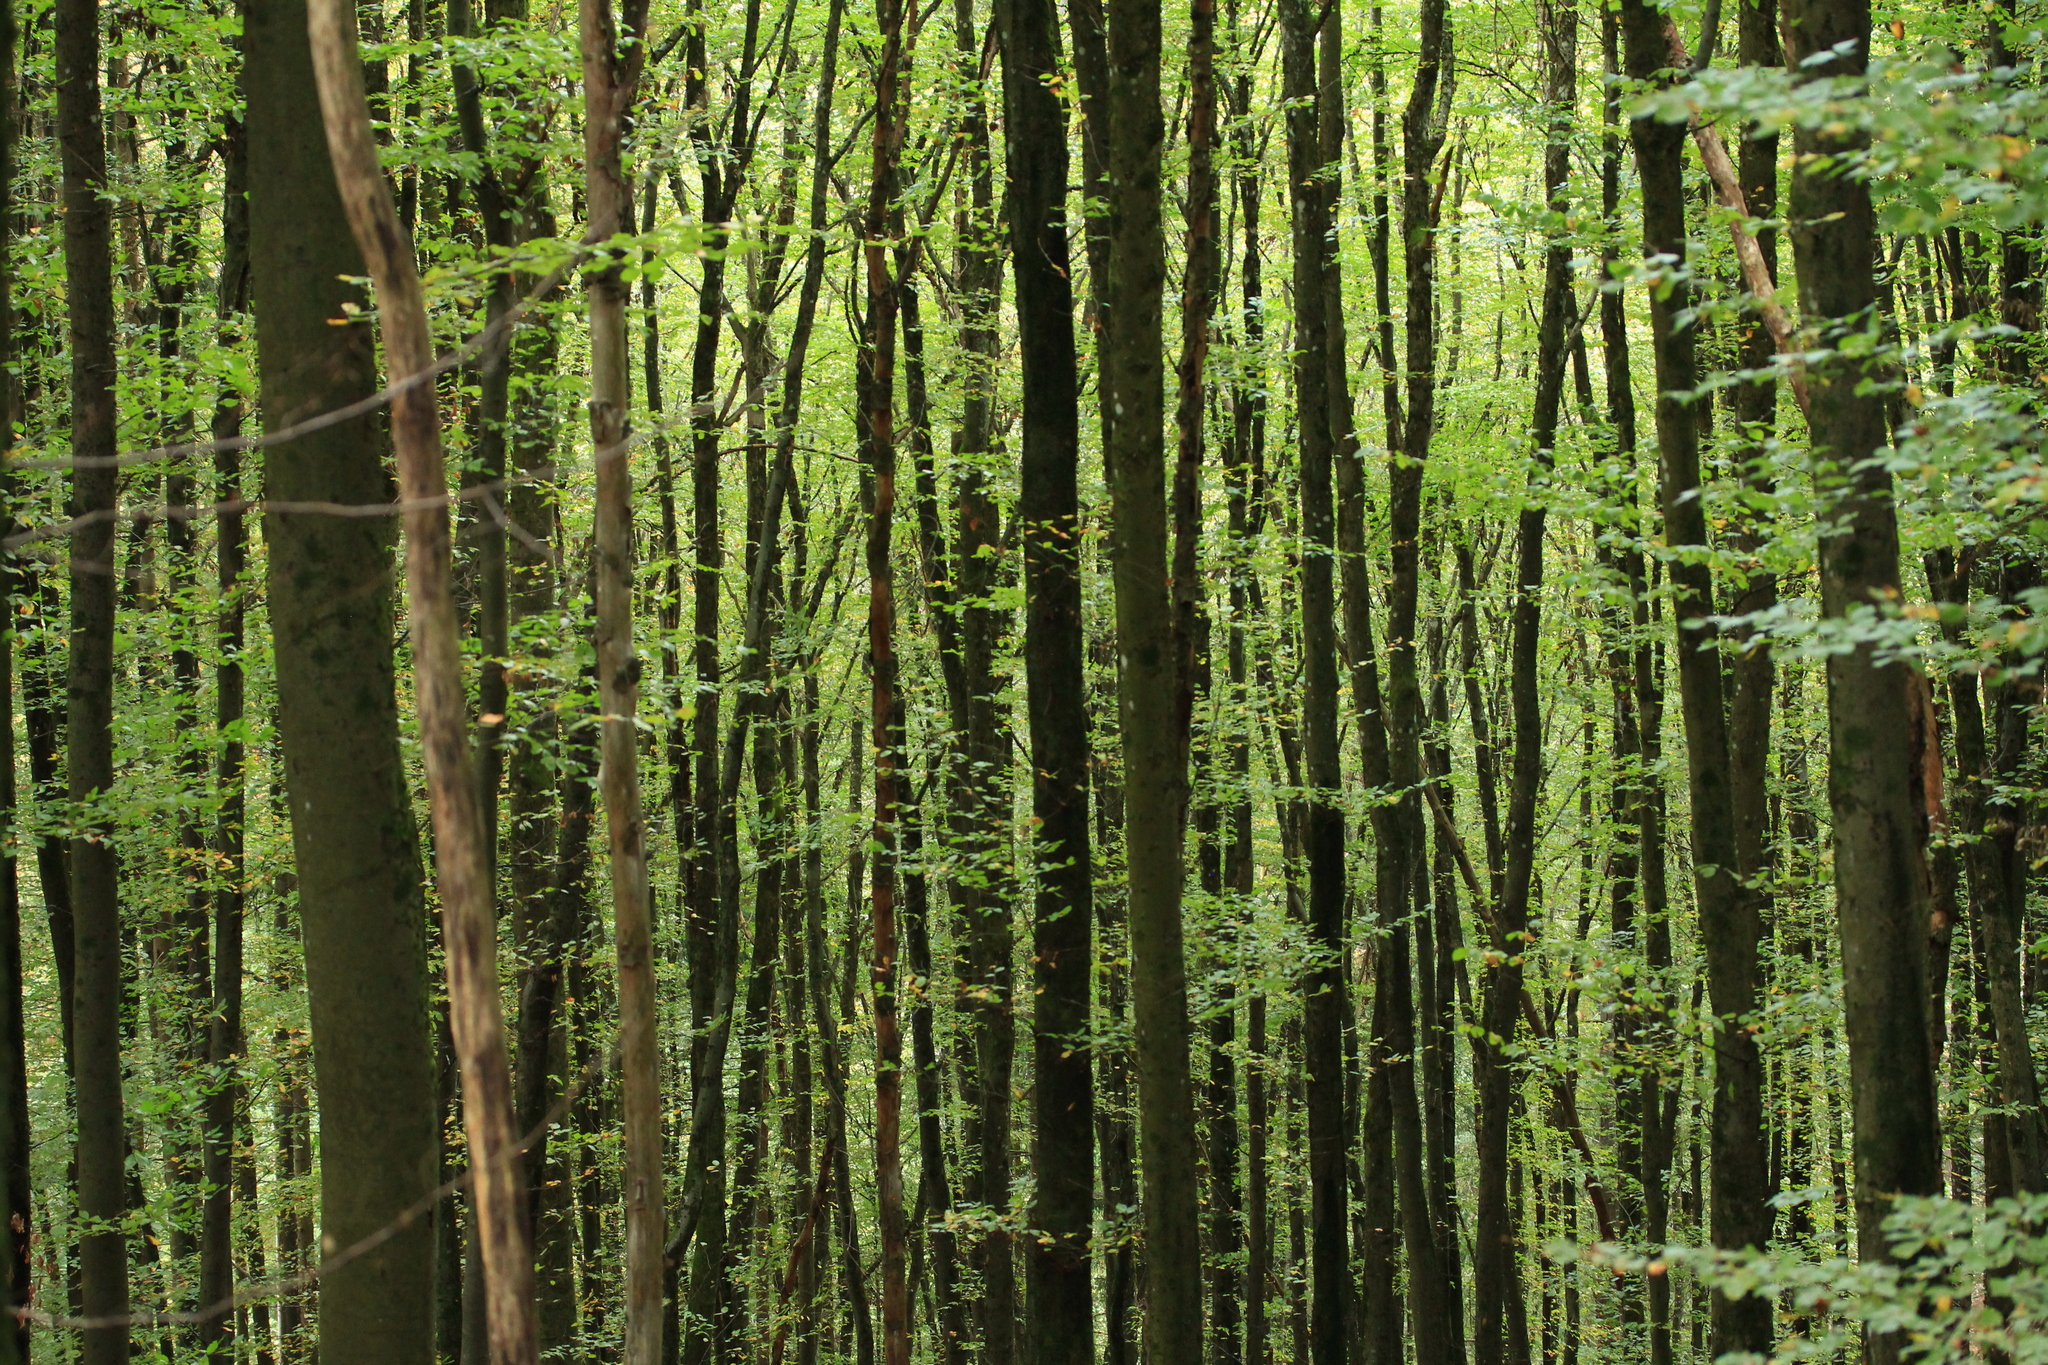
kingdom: Plantae
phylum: Tracheophyta
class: Magnoliopsida
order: Fagales
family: Fagaceae
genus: Fagus
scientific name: Fagus sylvatica
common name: Beech
